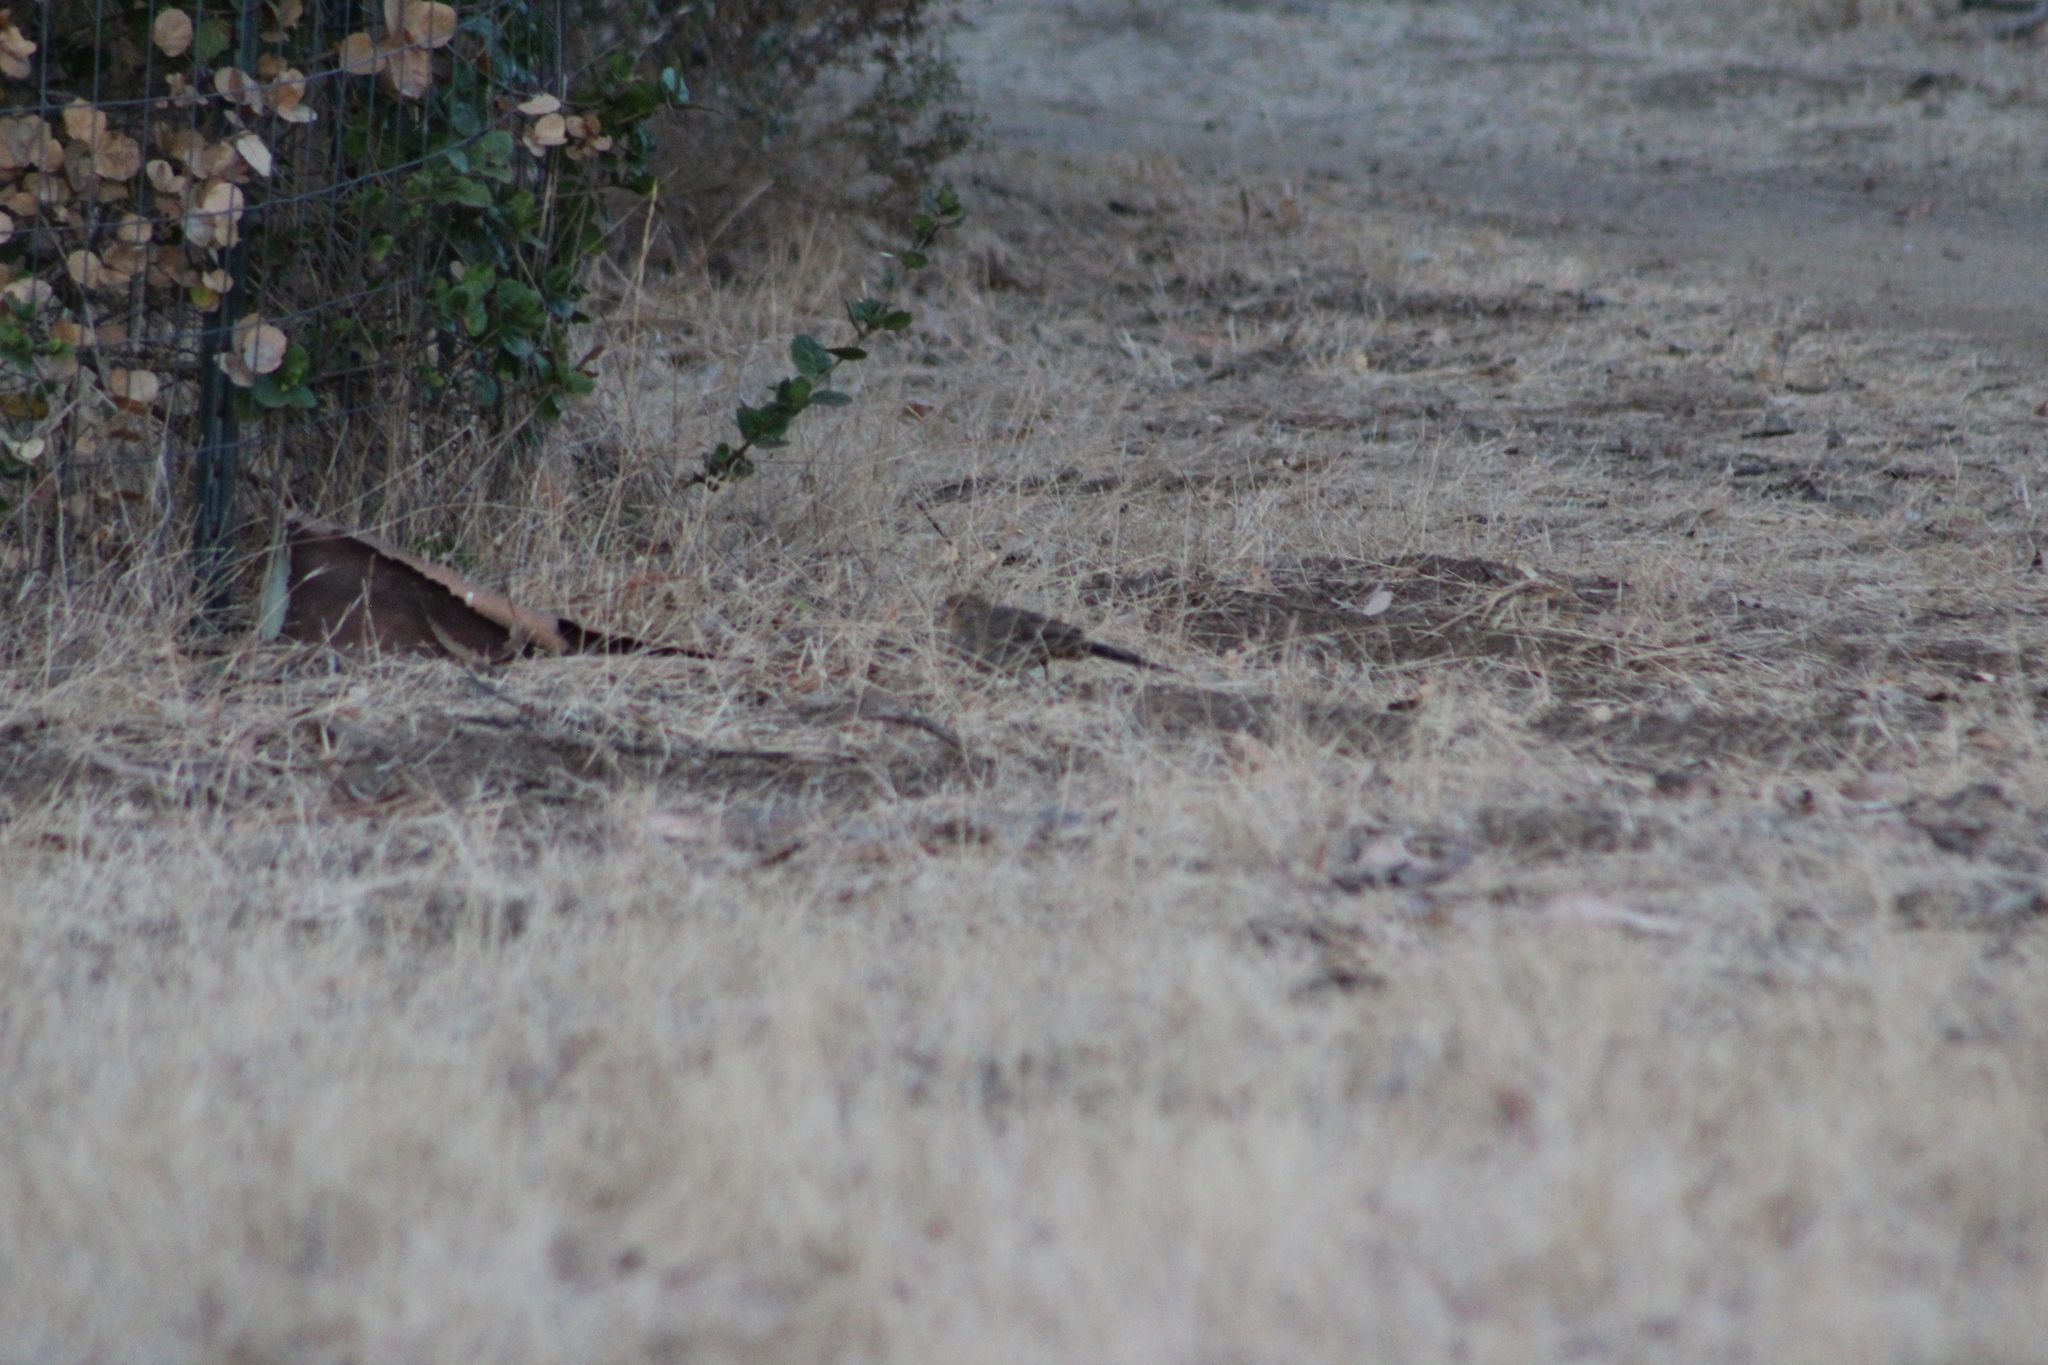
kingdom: Animalia
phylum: Chordata
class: Aves
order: Passeriformes
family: Passerellidae
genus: Melozone
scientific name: Melozone crissalis
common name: California towhee
